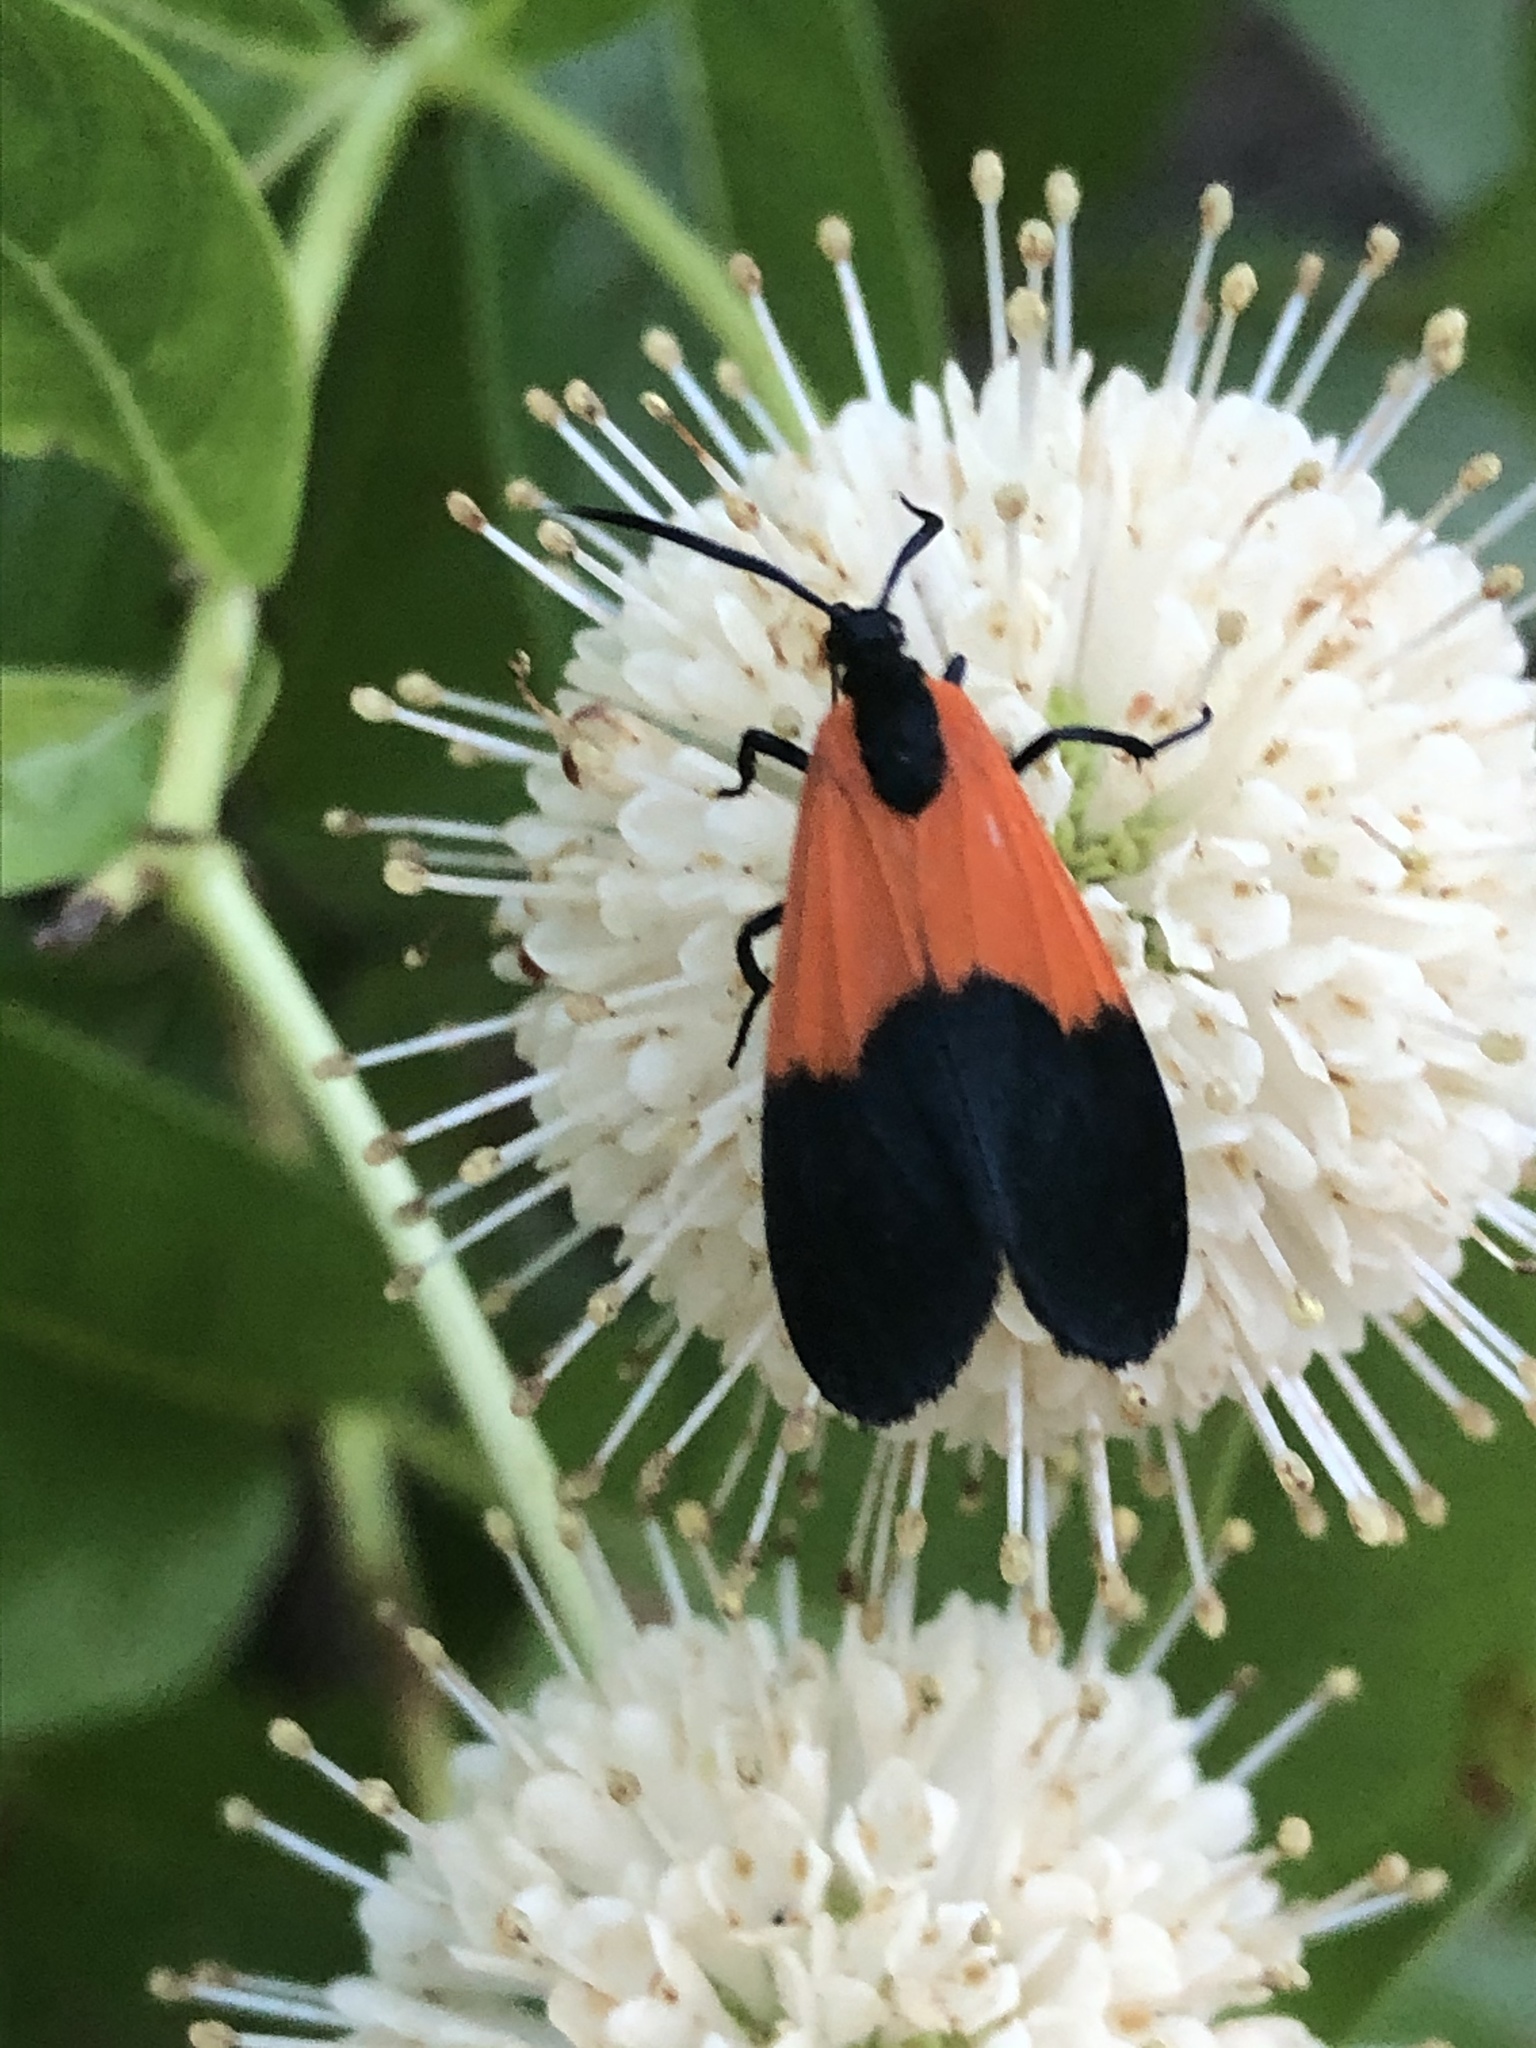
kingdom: Animalia
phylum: Arthropoda
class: Insecta
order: Lepidoptera
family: Erebidae
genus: Lycomorpha
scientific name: Lycomorpha pholus
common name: Black-and-yellow lichen moth
